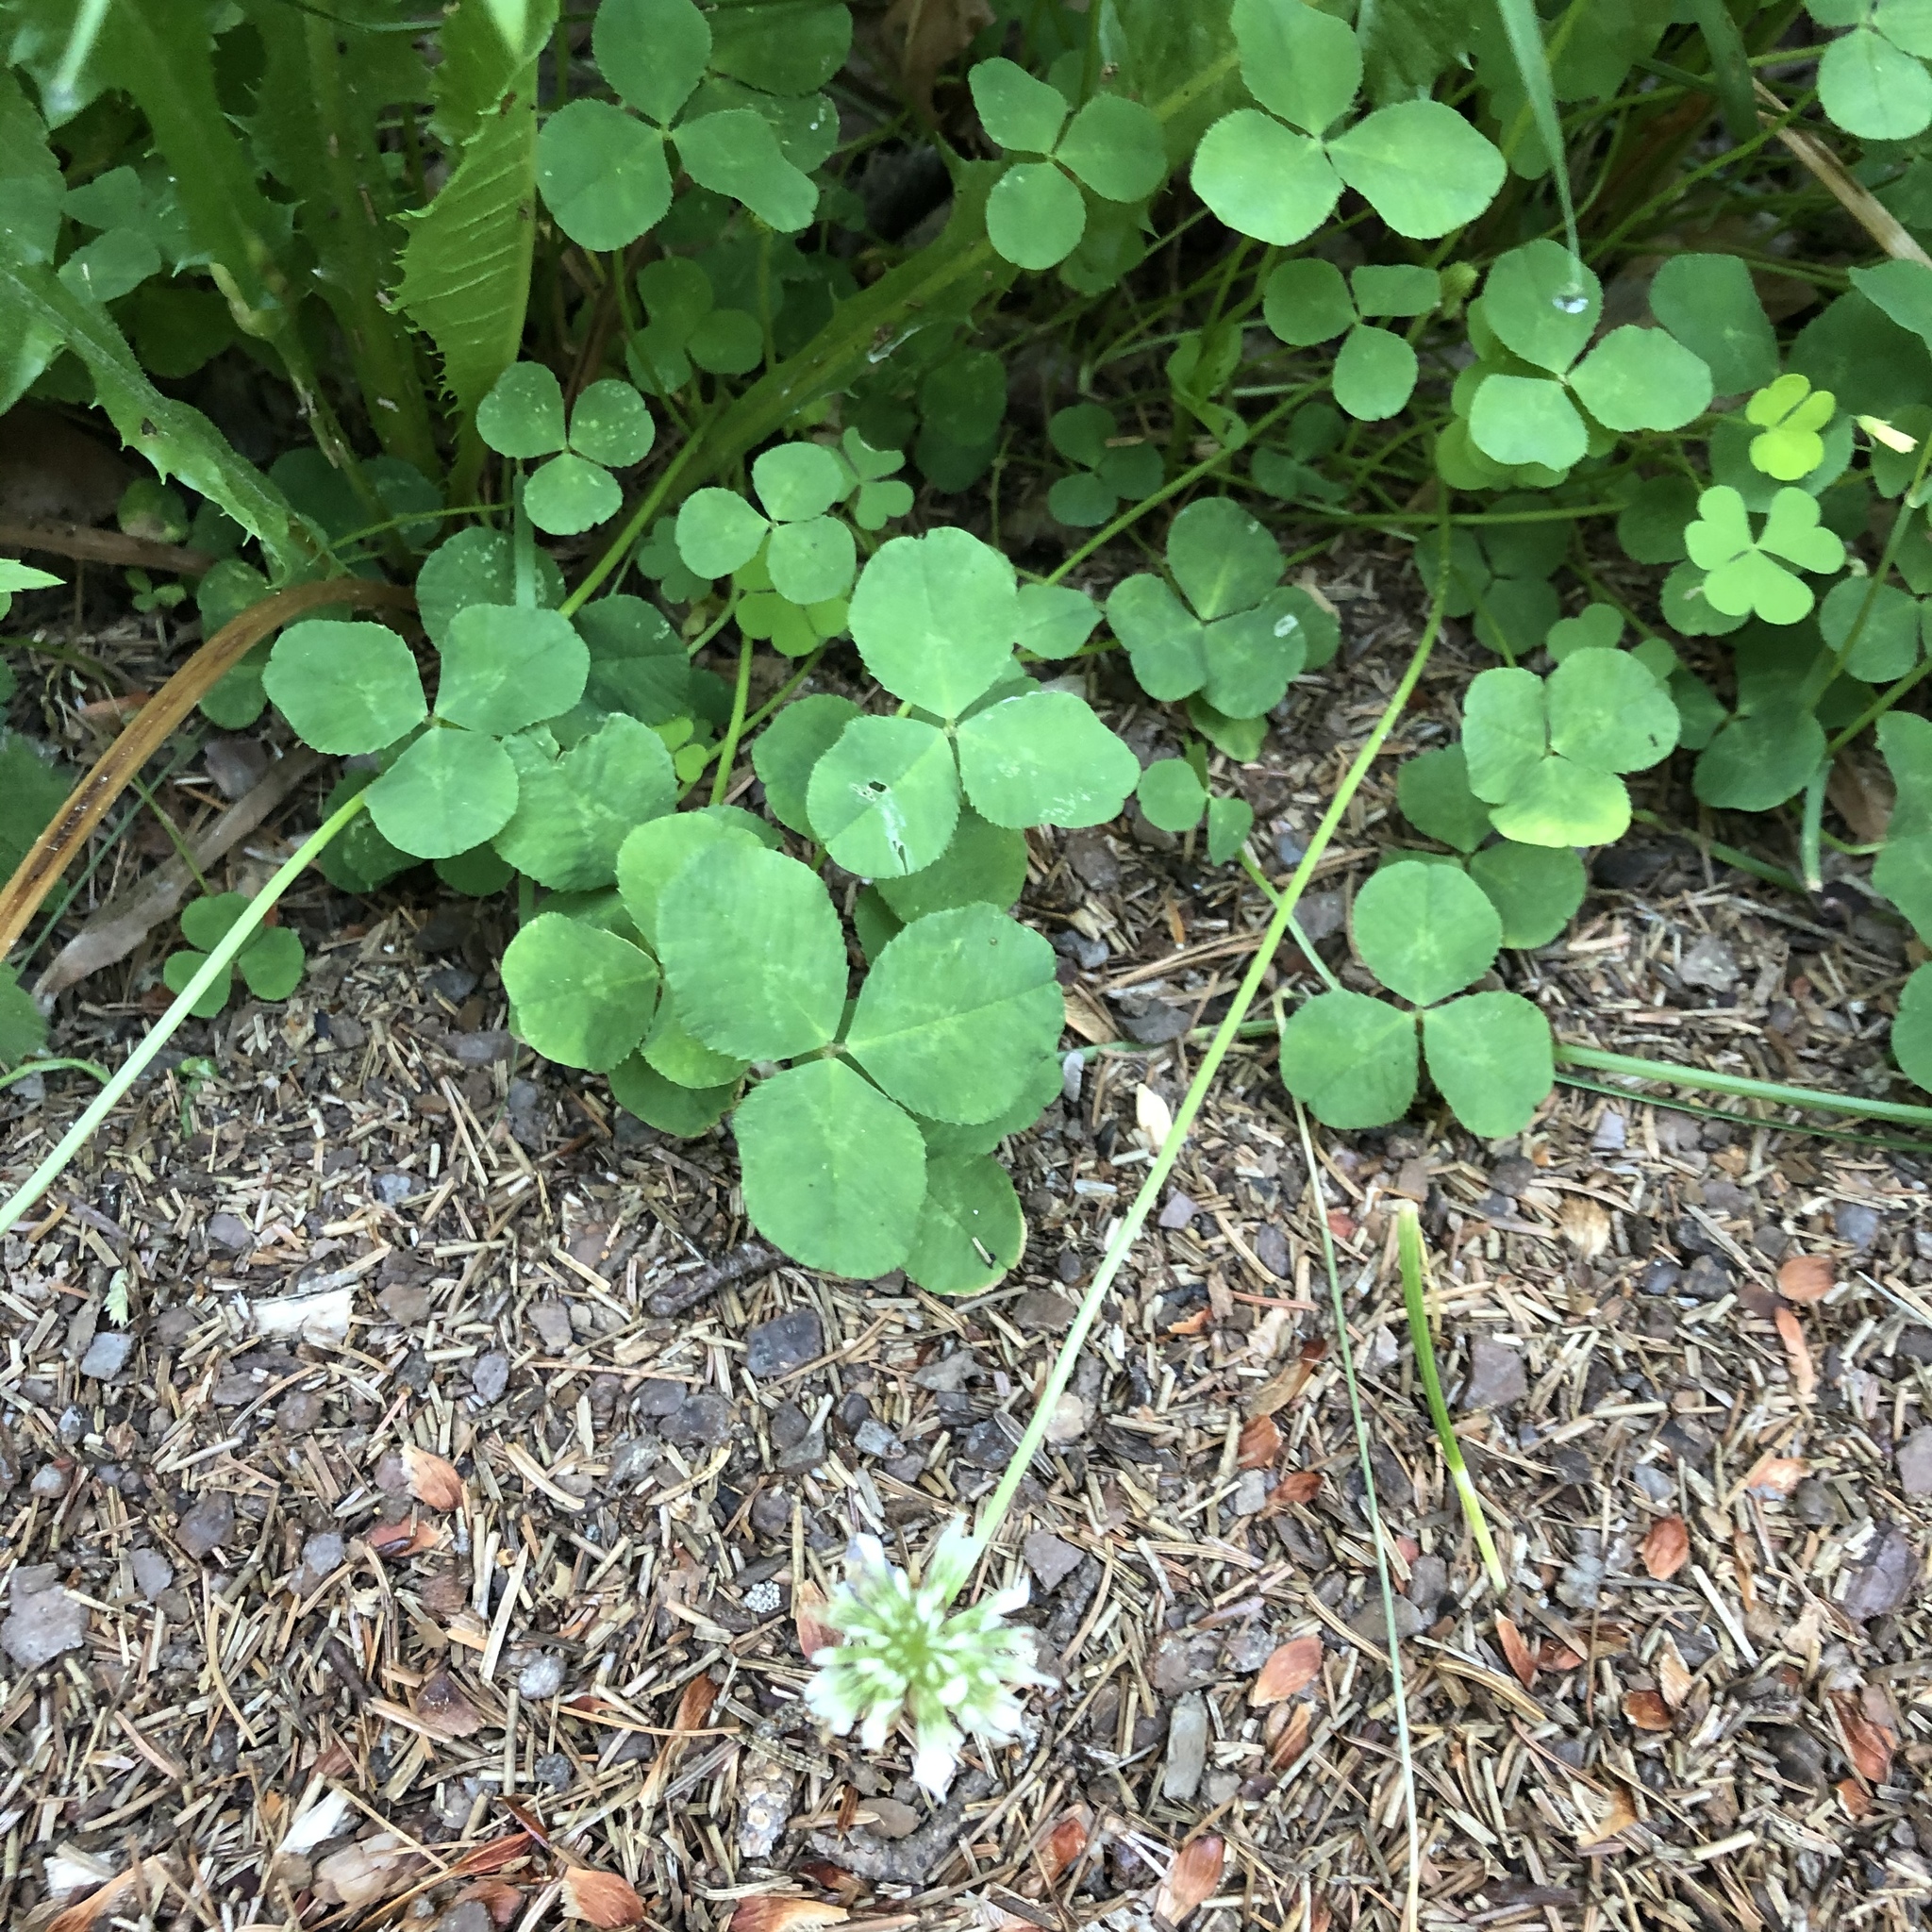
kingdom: Plantae
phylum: Tracheophyta
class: Magnoliopsida
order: Fabales
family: Fabaceae
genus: Trifolium
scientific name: Trifolium repens
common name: White clover
